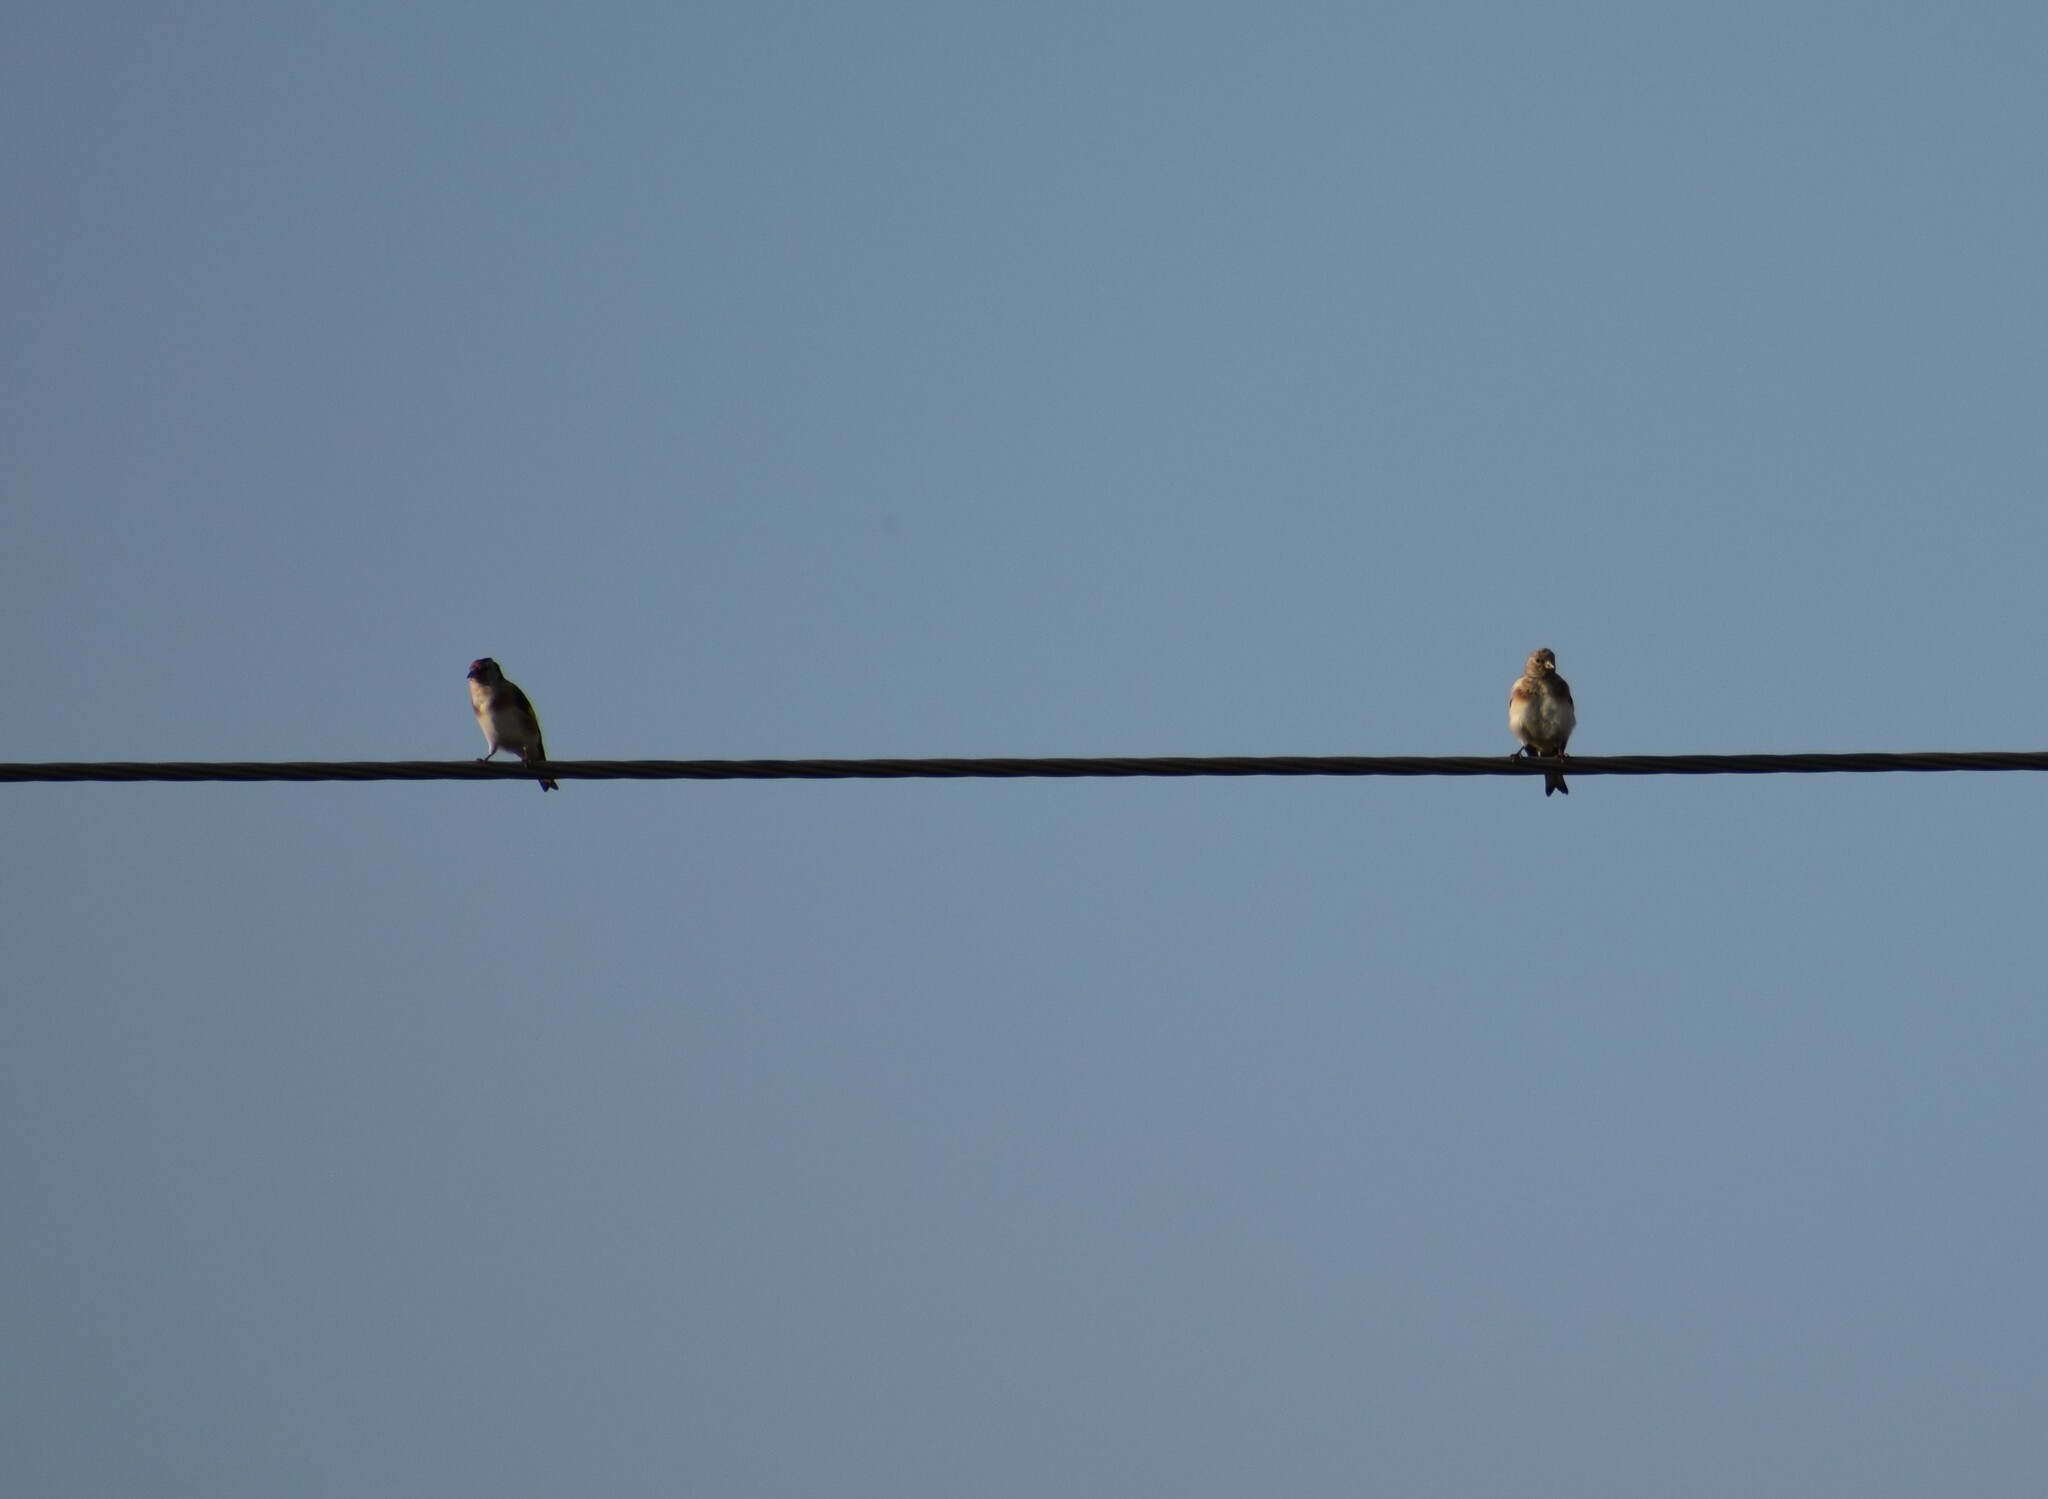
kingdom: Animalia
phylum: Chordata
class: Aves
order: Passeriformes
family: Fringillidae
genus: Carduelis
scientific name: Carduelis carduelis
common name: European goldfinch
